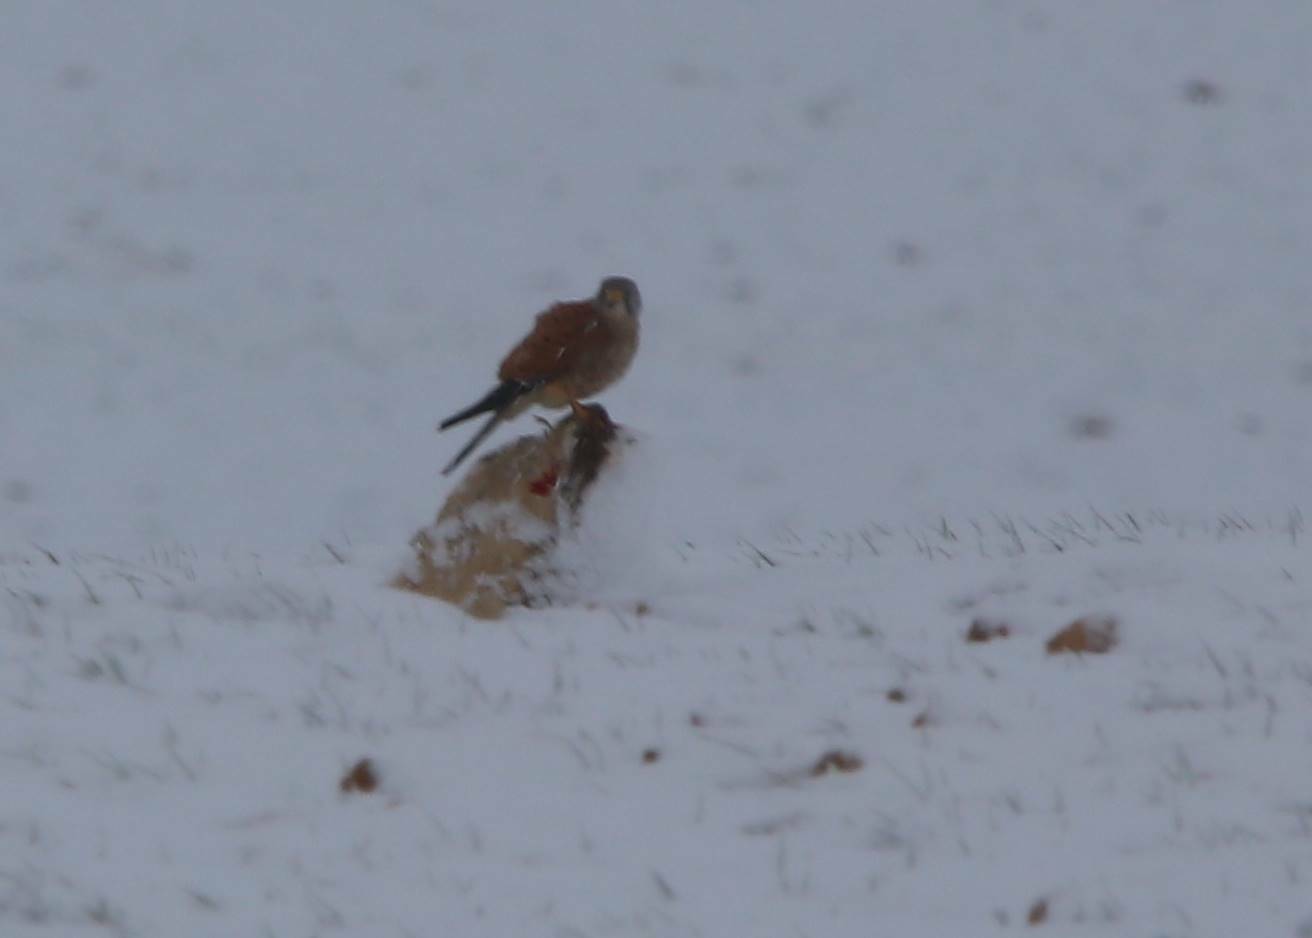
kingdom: Animalia
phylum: Chordata
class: Aves
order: Falconiformes
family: Falconidae
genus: Falco
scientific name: Falco tinnunculus
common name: Common kestrel
